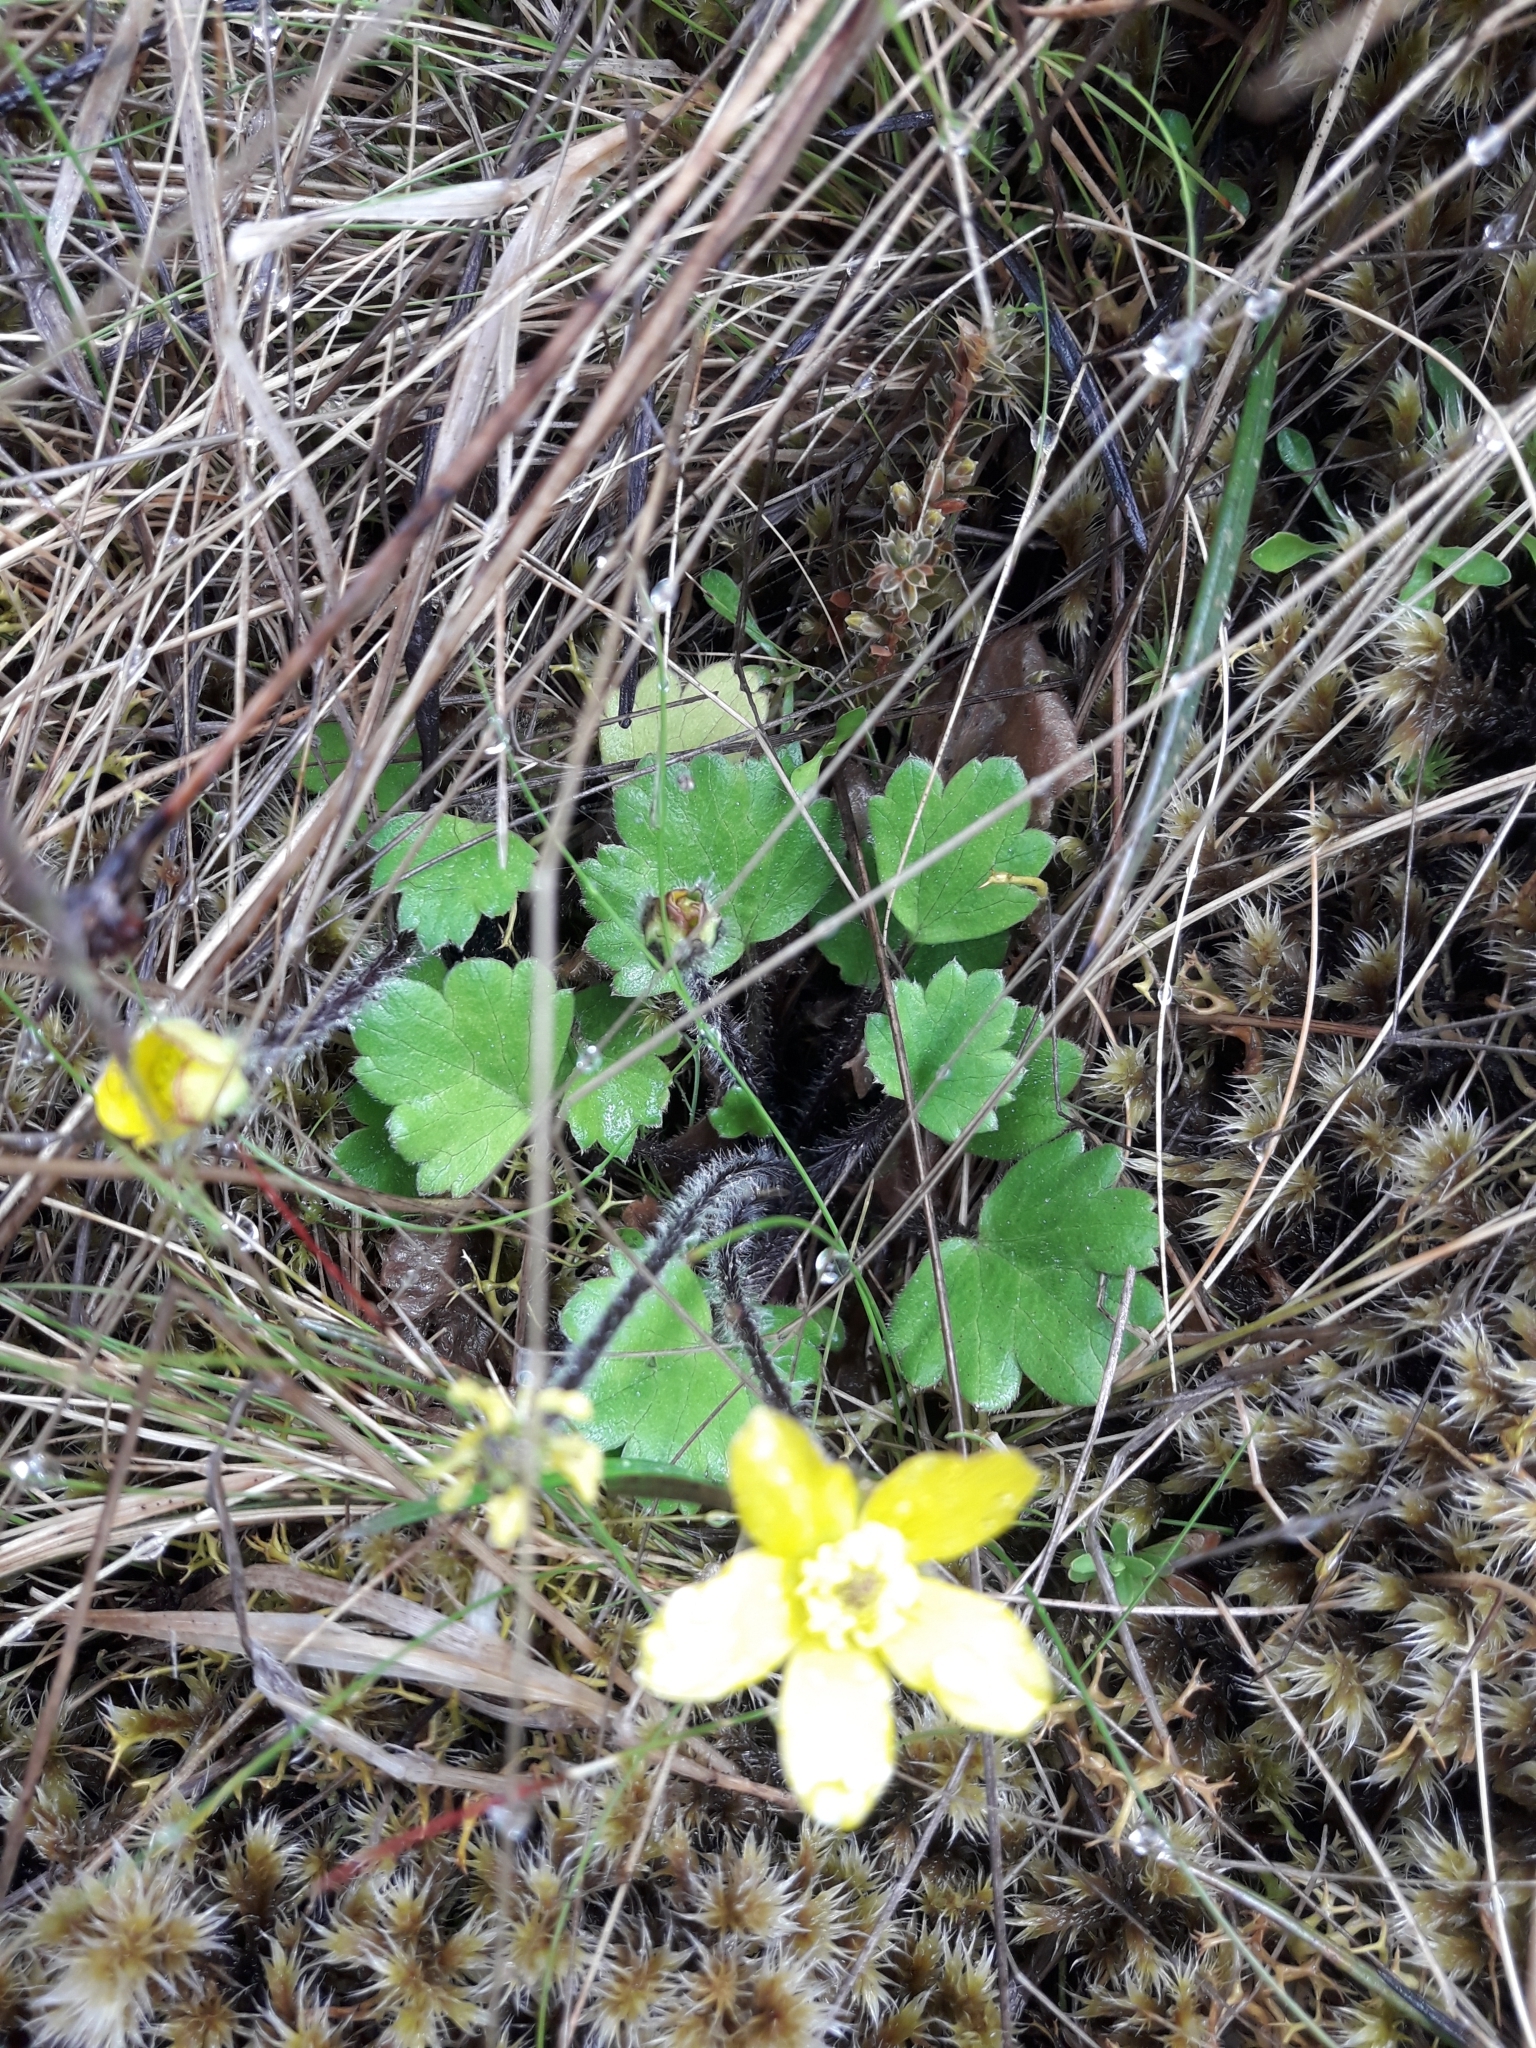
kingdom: Plantae
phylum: Tracheophyta
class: Magnoliopsida
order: Ranunculales
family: Ranunculaceae
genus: Ranunculus
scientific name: Ranunculus multiscapus
